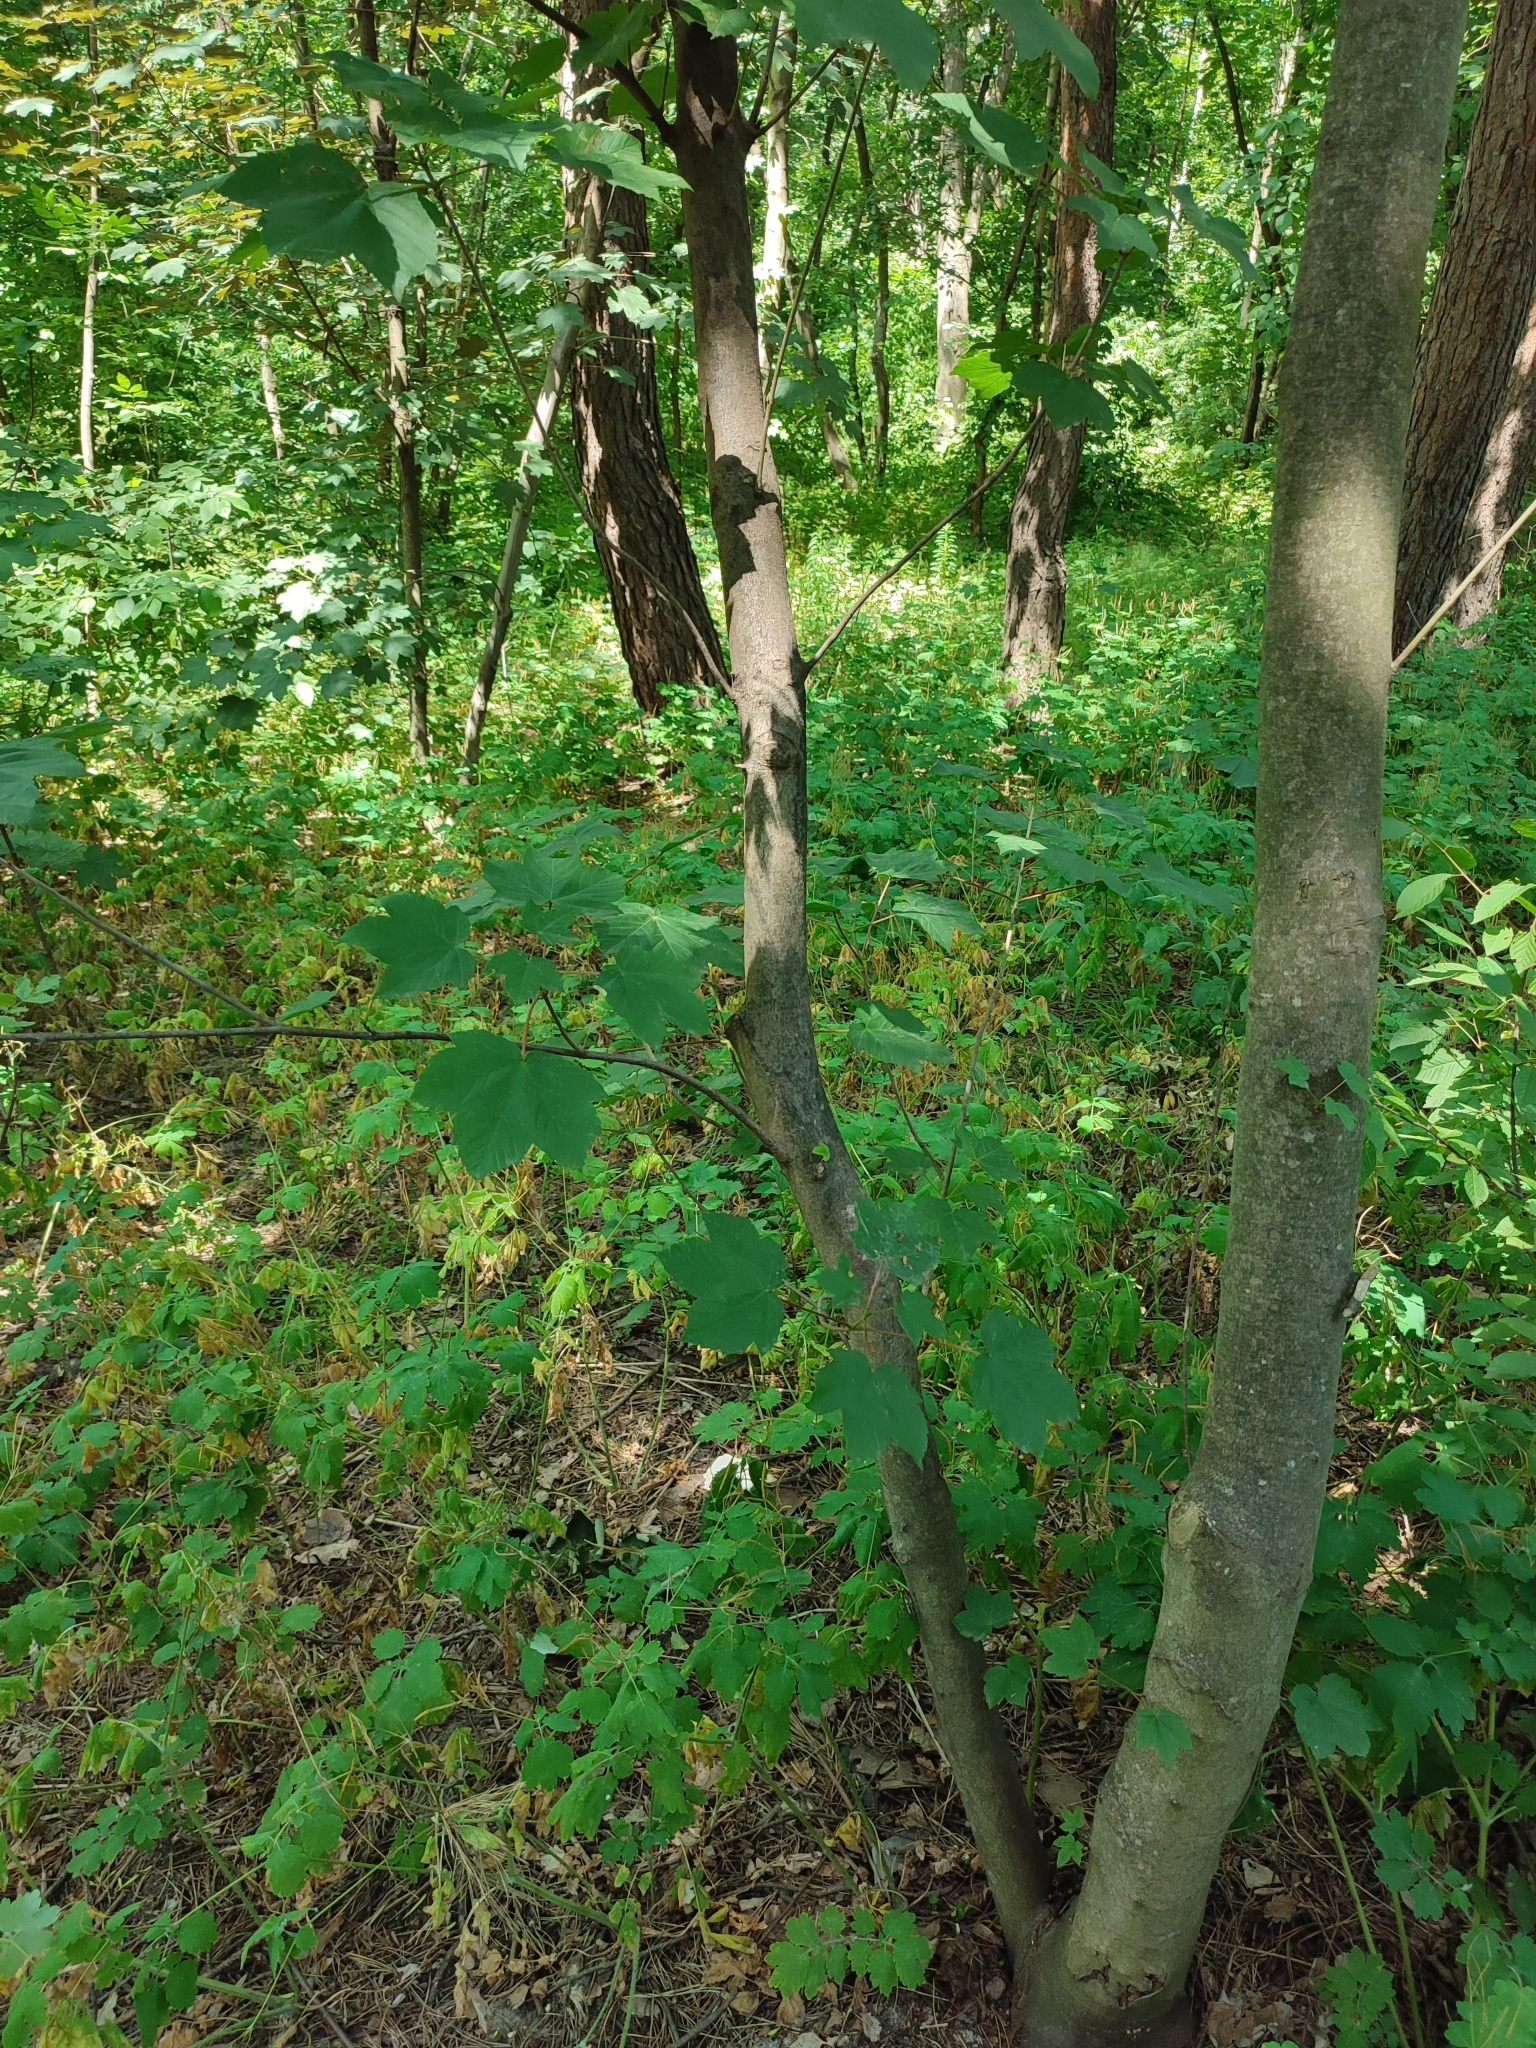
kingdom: Plantae
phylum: Tracheophyta
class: Magnoliopsida
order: Sapindales
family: Sapindaceae
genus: Acer
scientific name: Acer pseudoplatanus
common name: Sycamore
